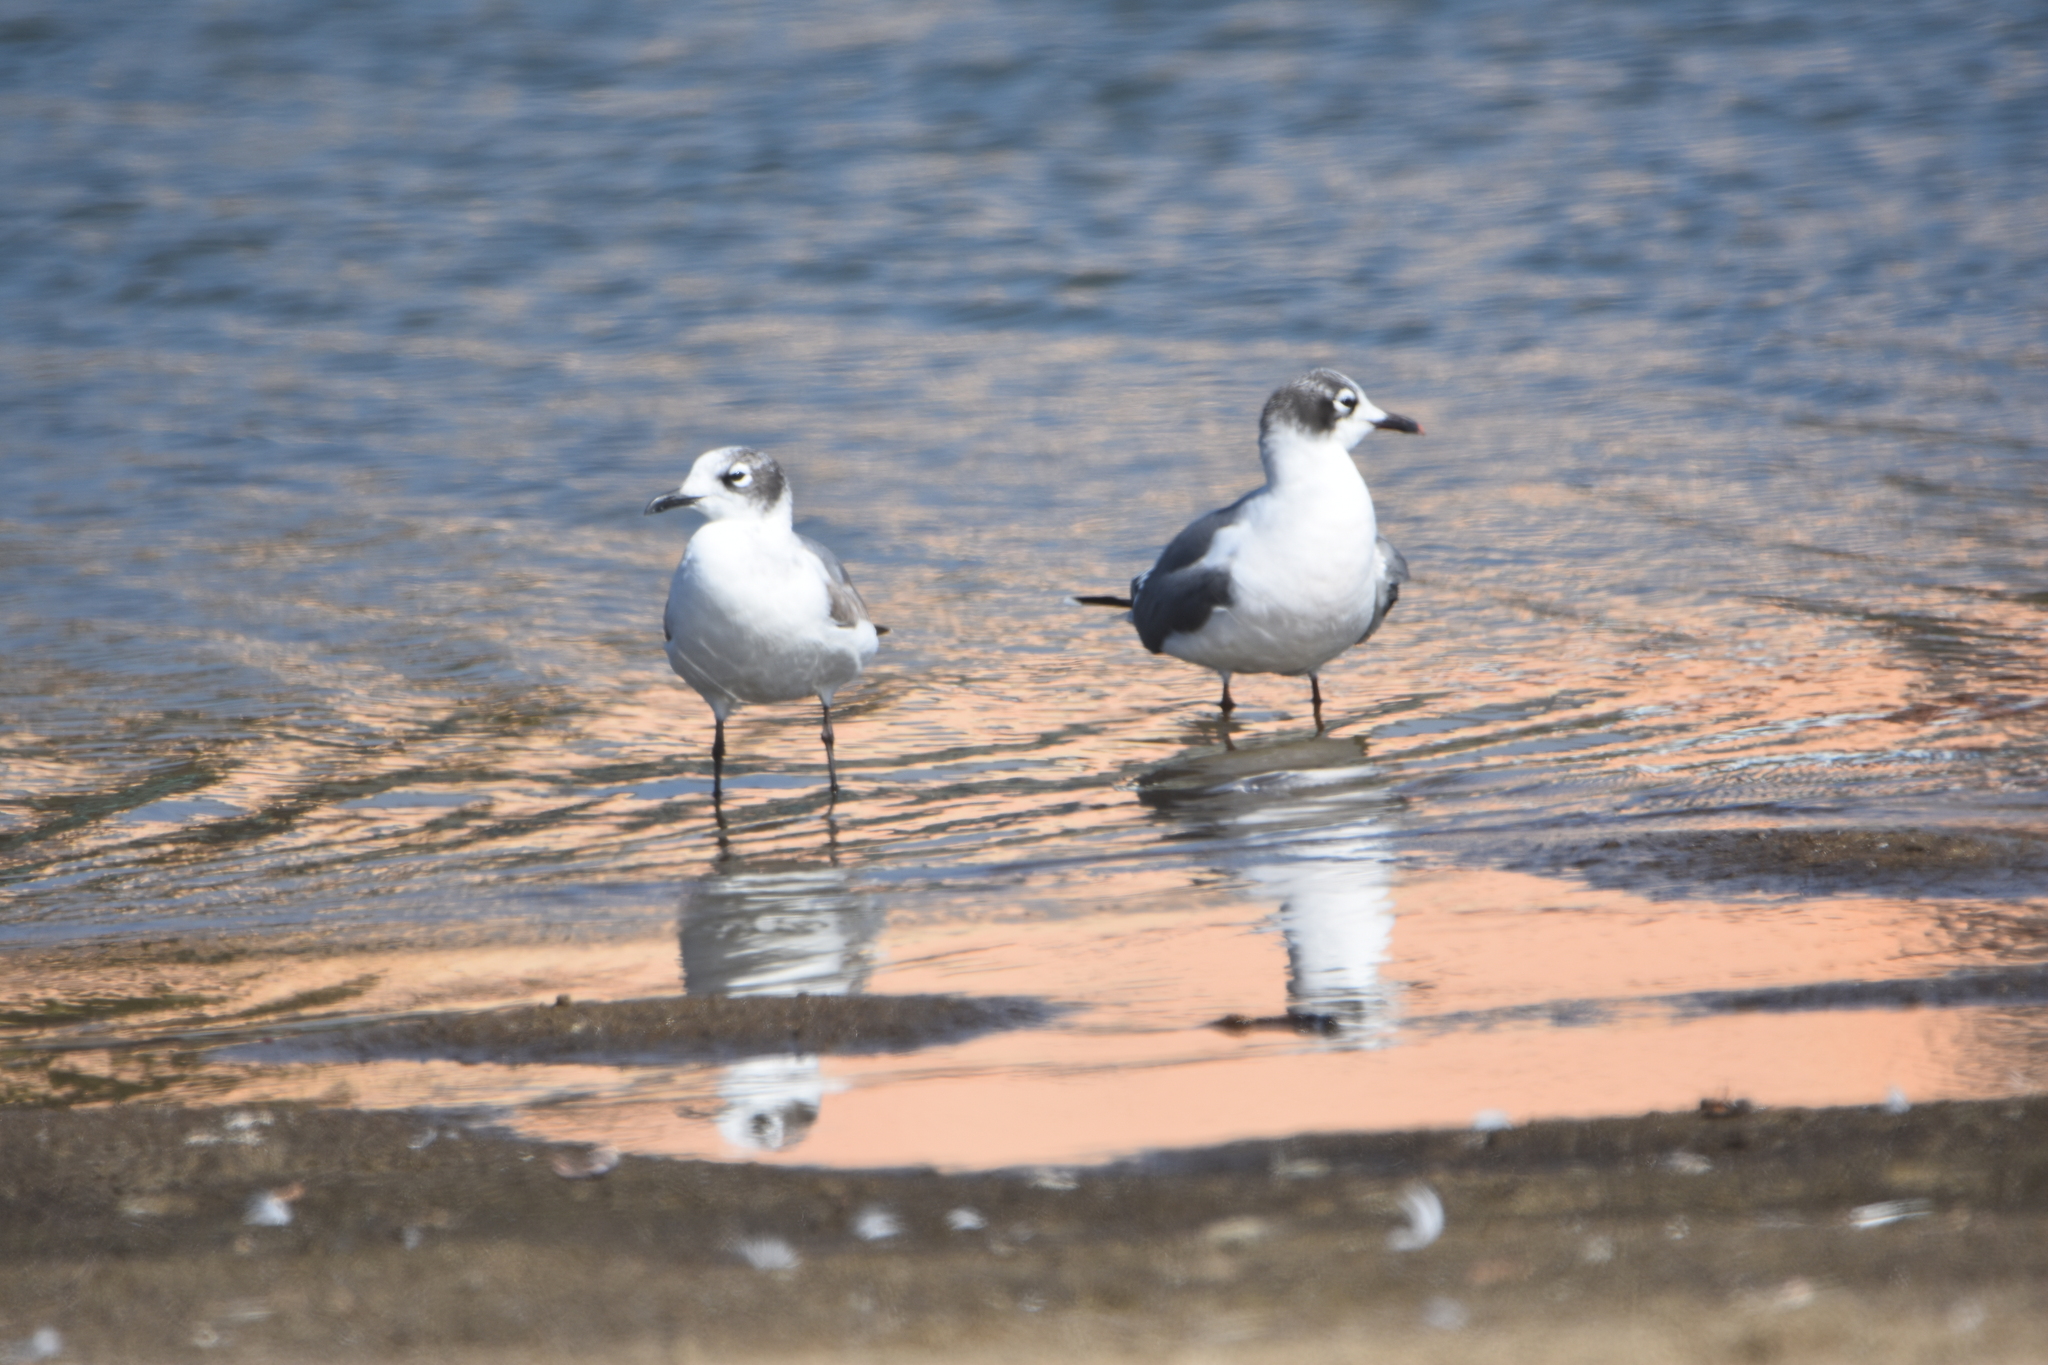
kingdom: Animalia
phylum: Chordata
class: Aves
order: Charadriiformes
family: Laridae
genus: Leucophaeus
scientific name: Leucophaeus pipixcan
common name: Franklin's gull
